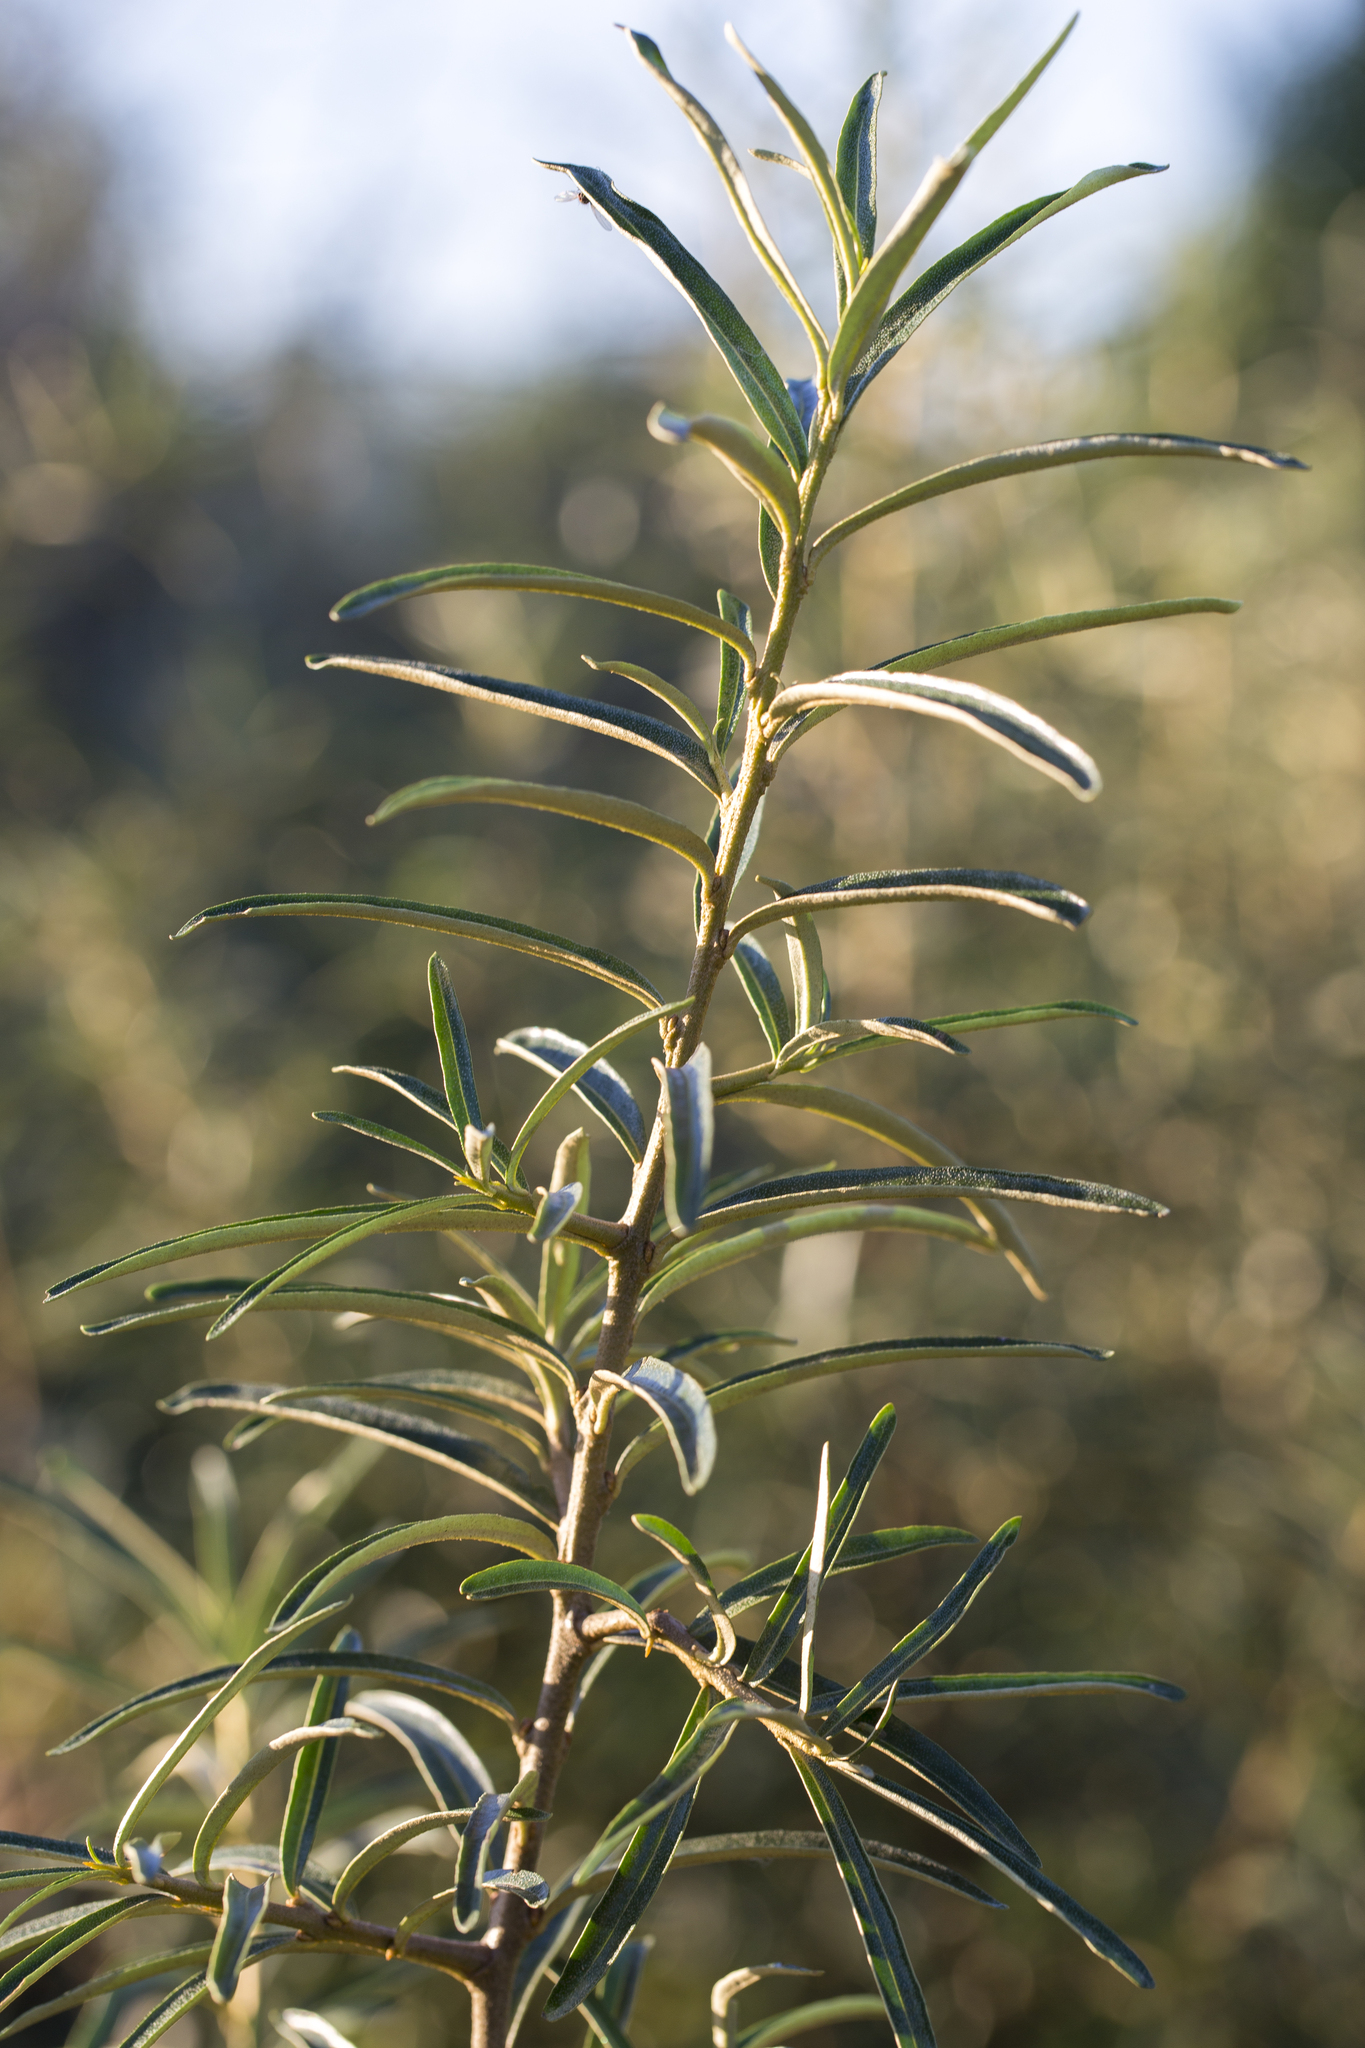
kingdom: Plantae
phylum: Tracheophyta
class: Magnoliopsida
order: Rosales
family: Elaeagnaceae
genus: Hippophae
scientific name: Hippophae rhamnoides
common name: Sea-buckthorn
